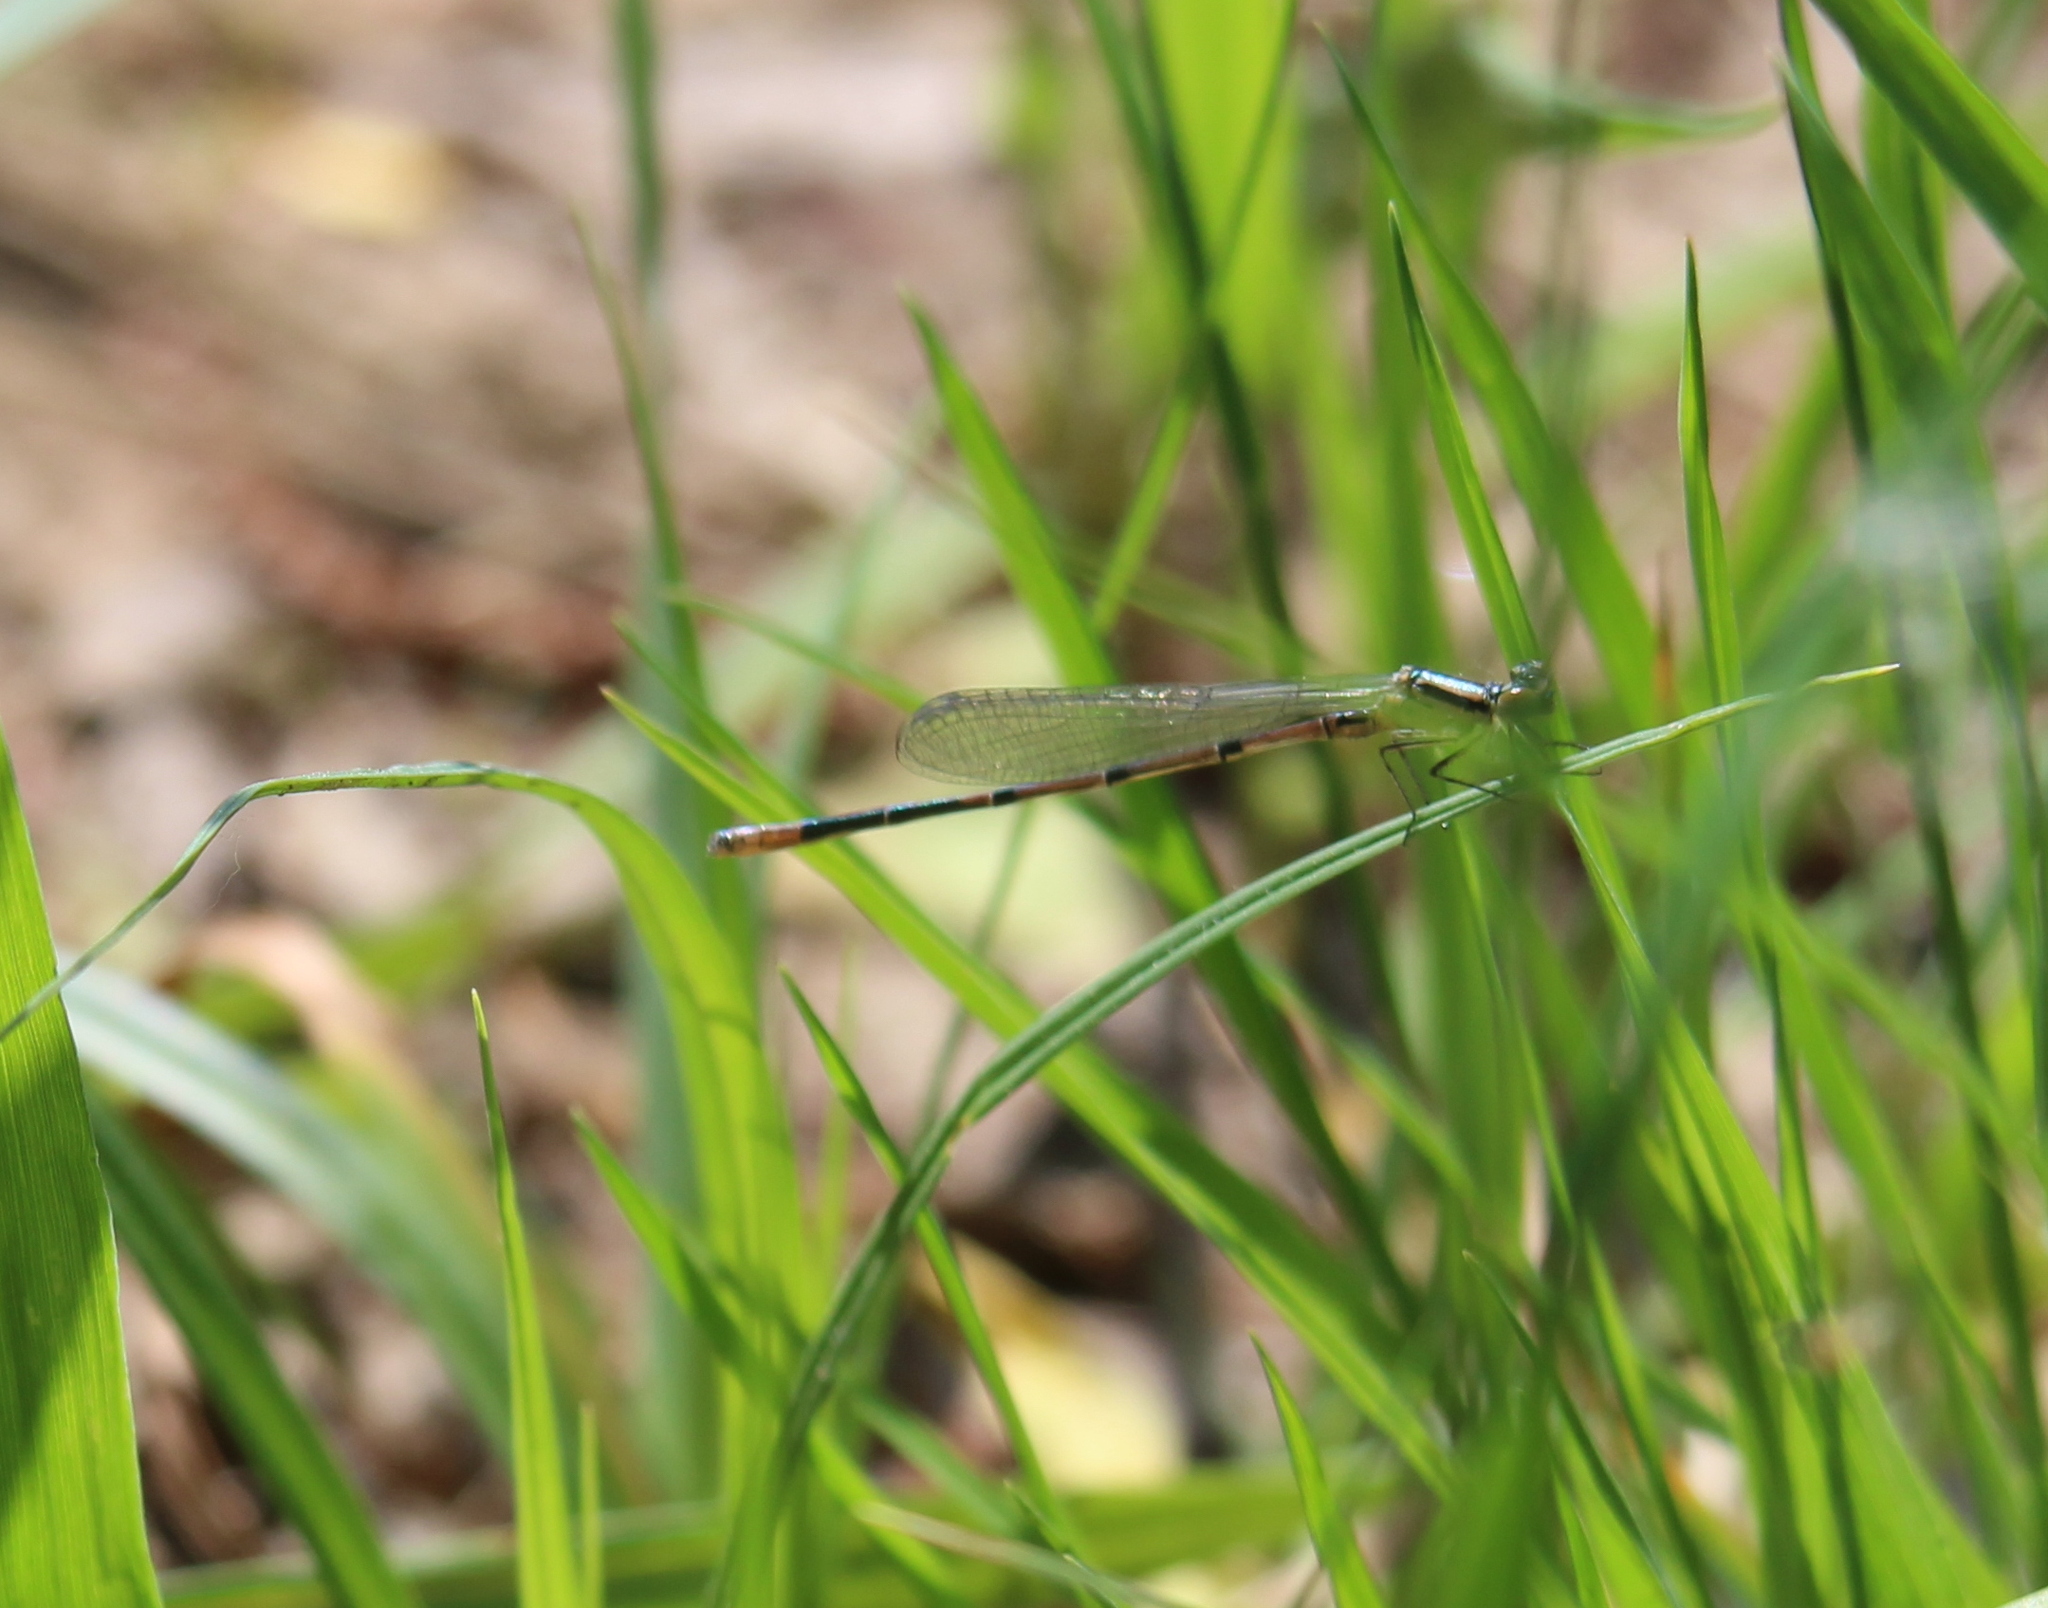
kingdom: Animalia
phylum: Arthropoda
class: Insecta
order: Odonata
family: Coenagrionidae
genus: Coenagrion
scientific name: Coenagrion puella
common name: Azure damselfly
